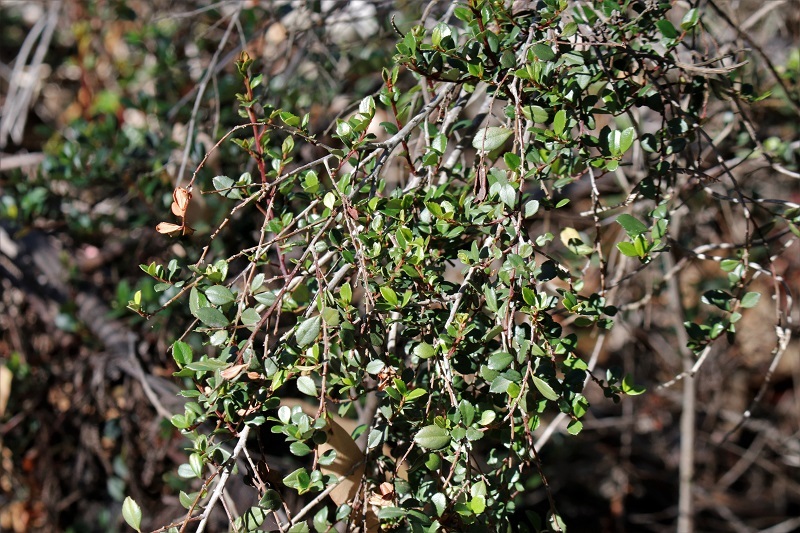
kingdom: Plantae
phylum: Tracheophyta
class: Magnoliopsida
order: Ericales
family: Primulaceae
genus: Myrsine
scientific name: Myrsine africana
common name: African-boxwood
